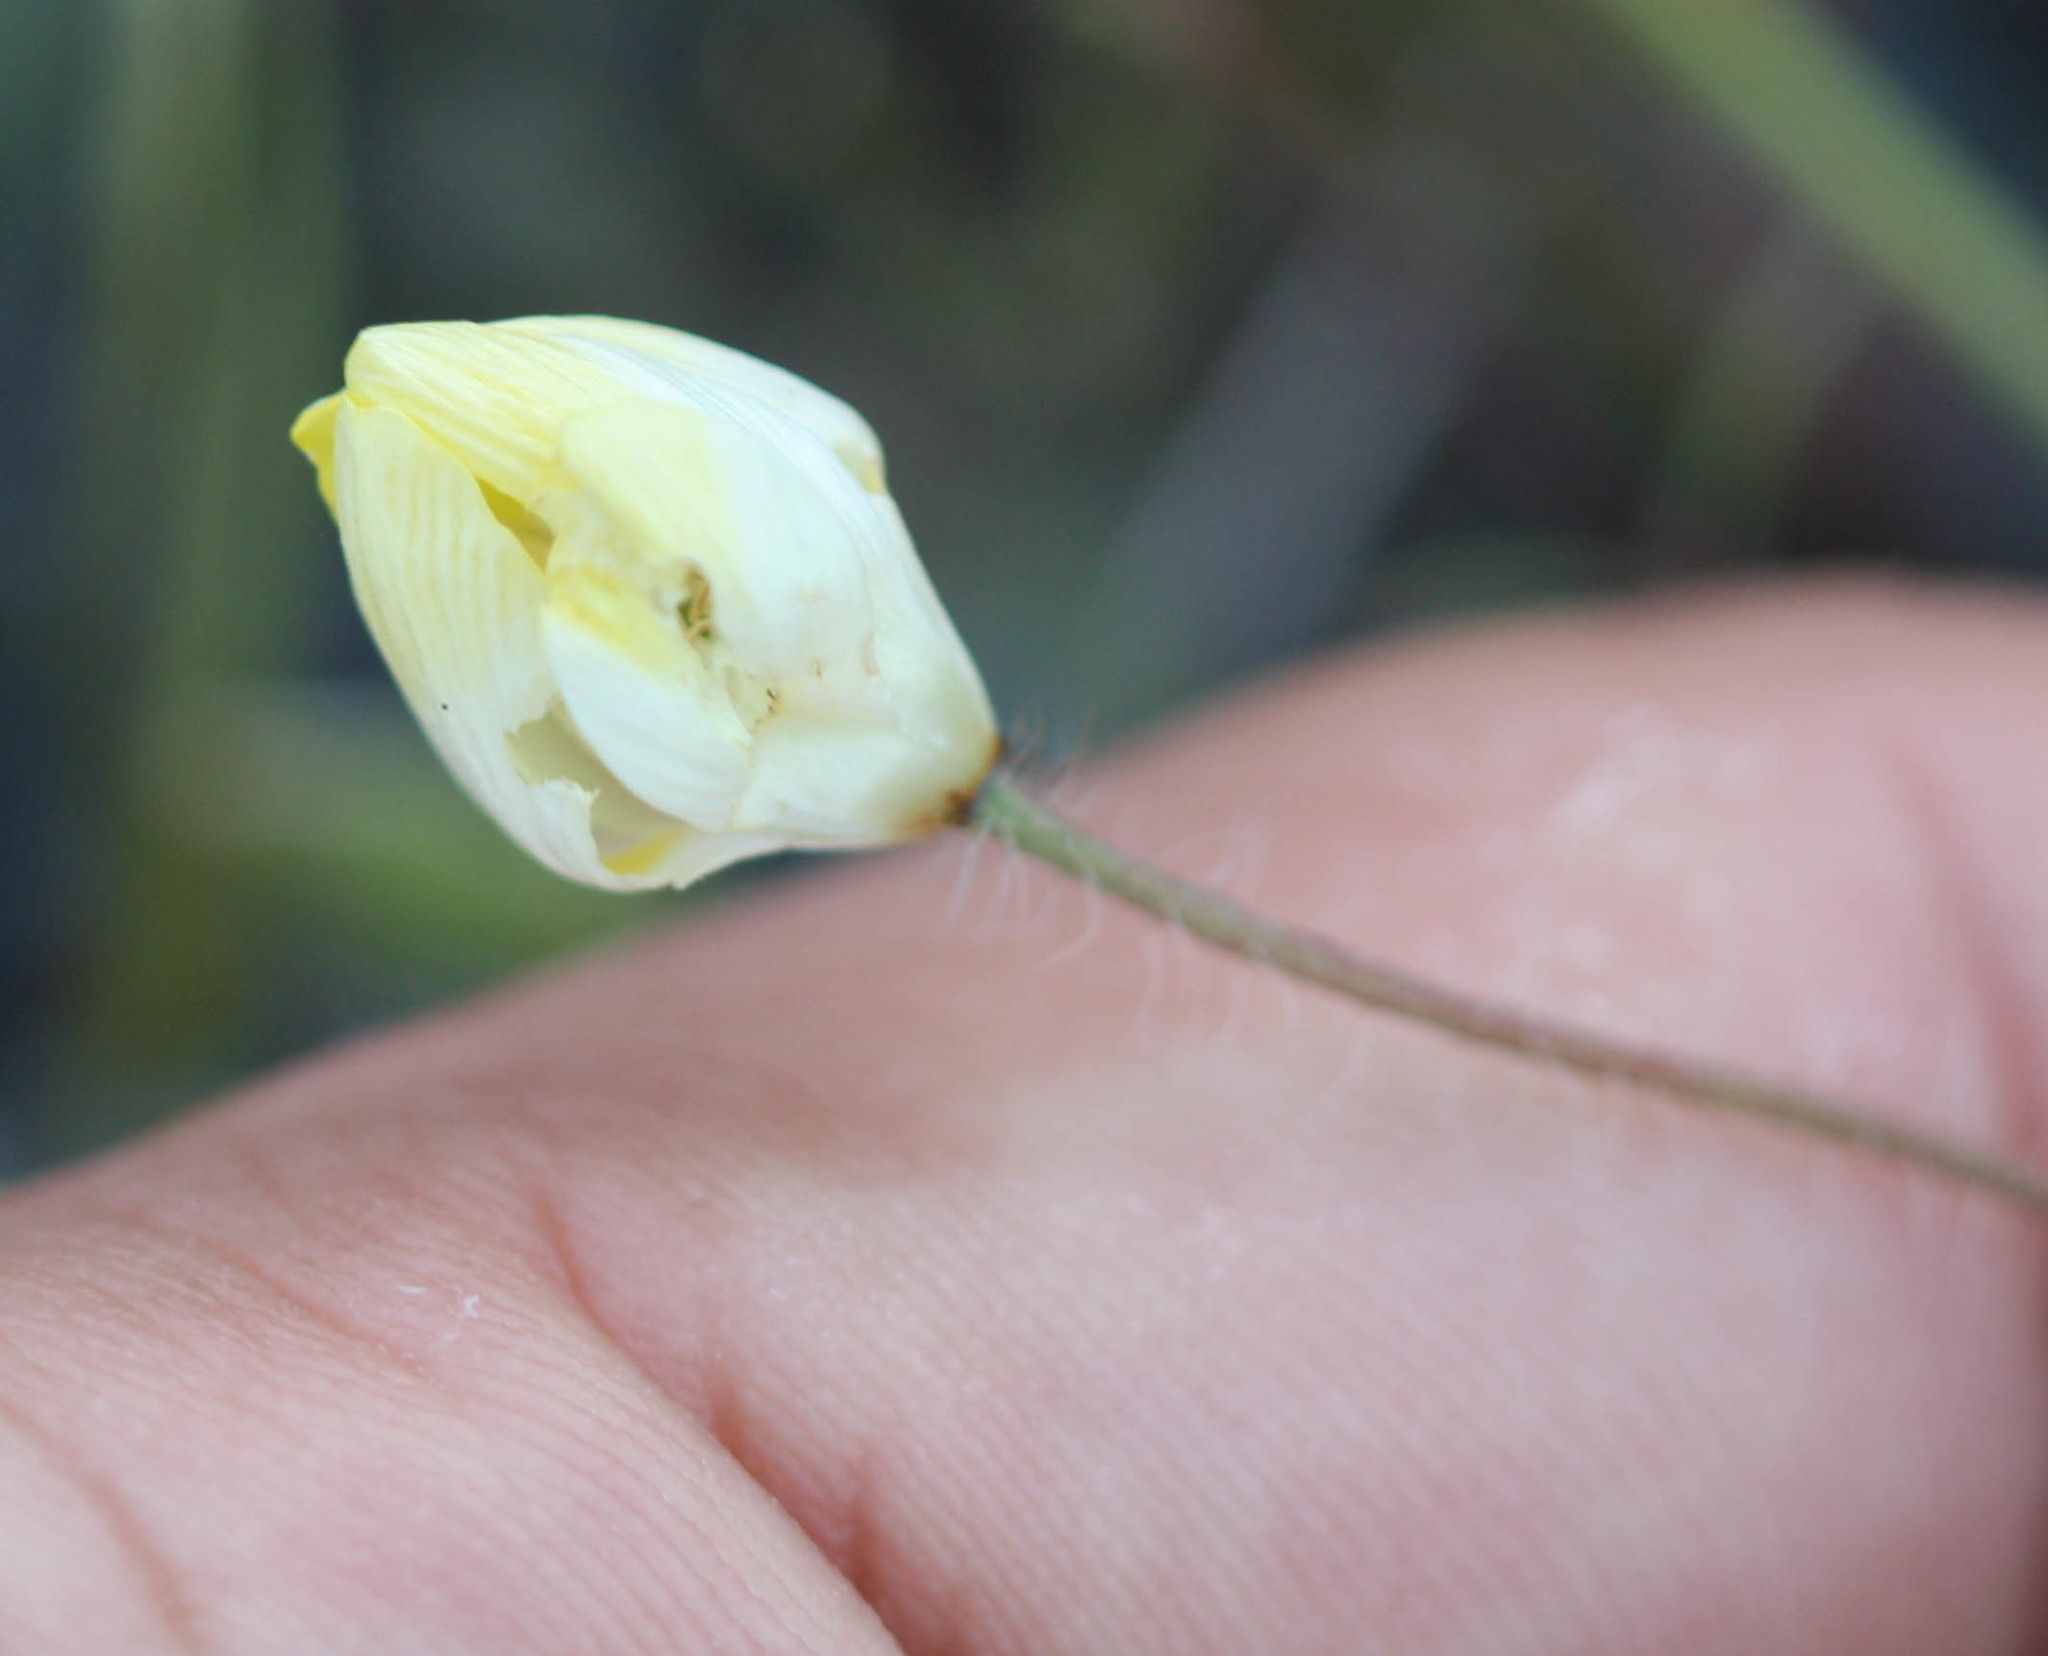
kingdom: Plantae
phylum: Tracheophyta
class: Magnoliopsida
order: Ranunculales
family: Papaveraceae
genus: Platystemon
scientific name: Platystemon californicus
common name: Cream-cups
